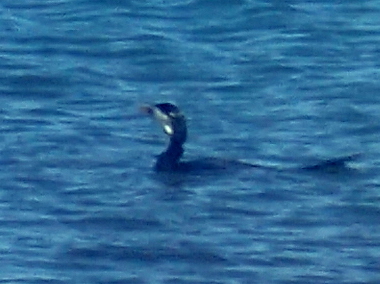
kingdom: Animalia
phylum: Chordata
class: Aves
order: Suliformes
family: Phalacrocoracidae
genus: Microcarbo
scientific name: Microcarbo melanoleucos
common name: Little pied cormorant
